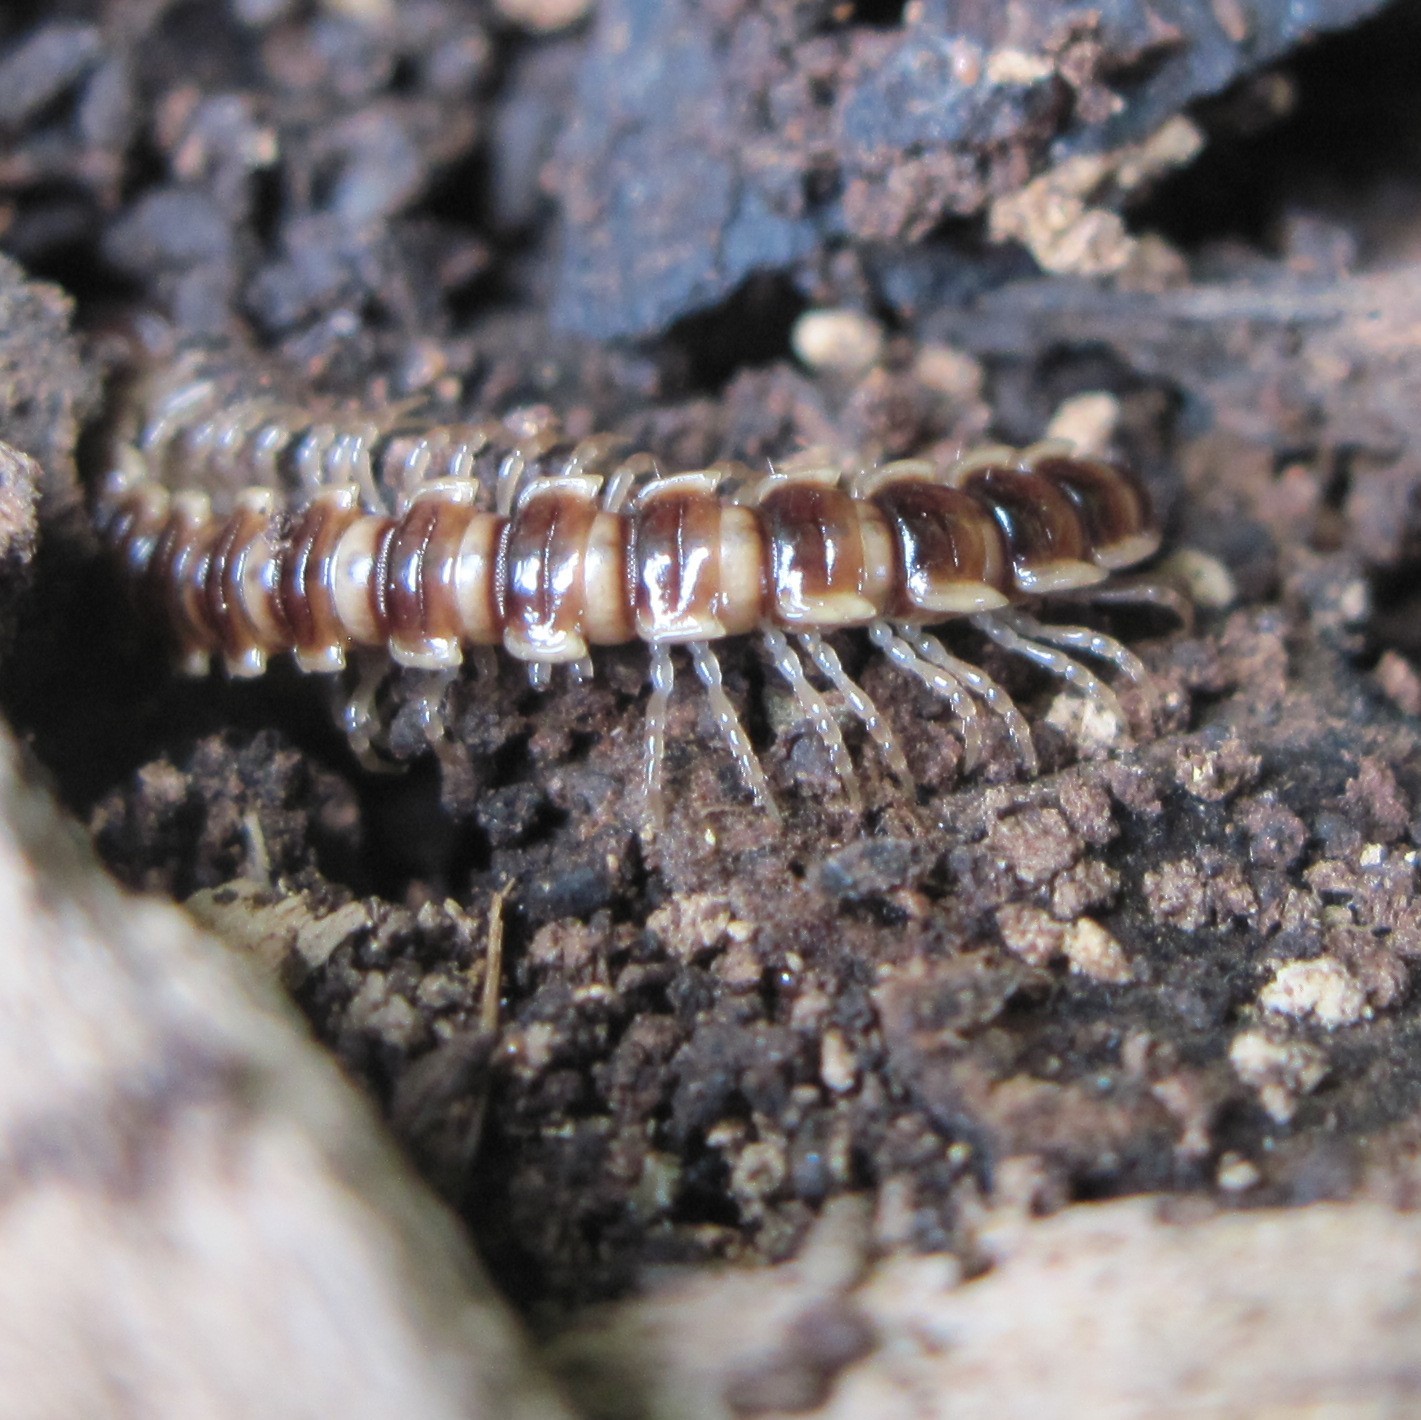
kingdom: Animalia
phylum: Arthropoda
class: Diplopoda
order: Polydesmida
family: Paradoxosomatidae
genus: Oxidus
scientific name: Oxidus gracilis
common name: Greenhouse millipede
